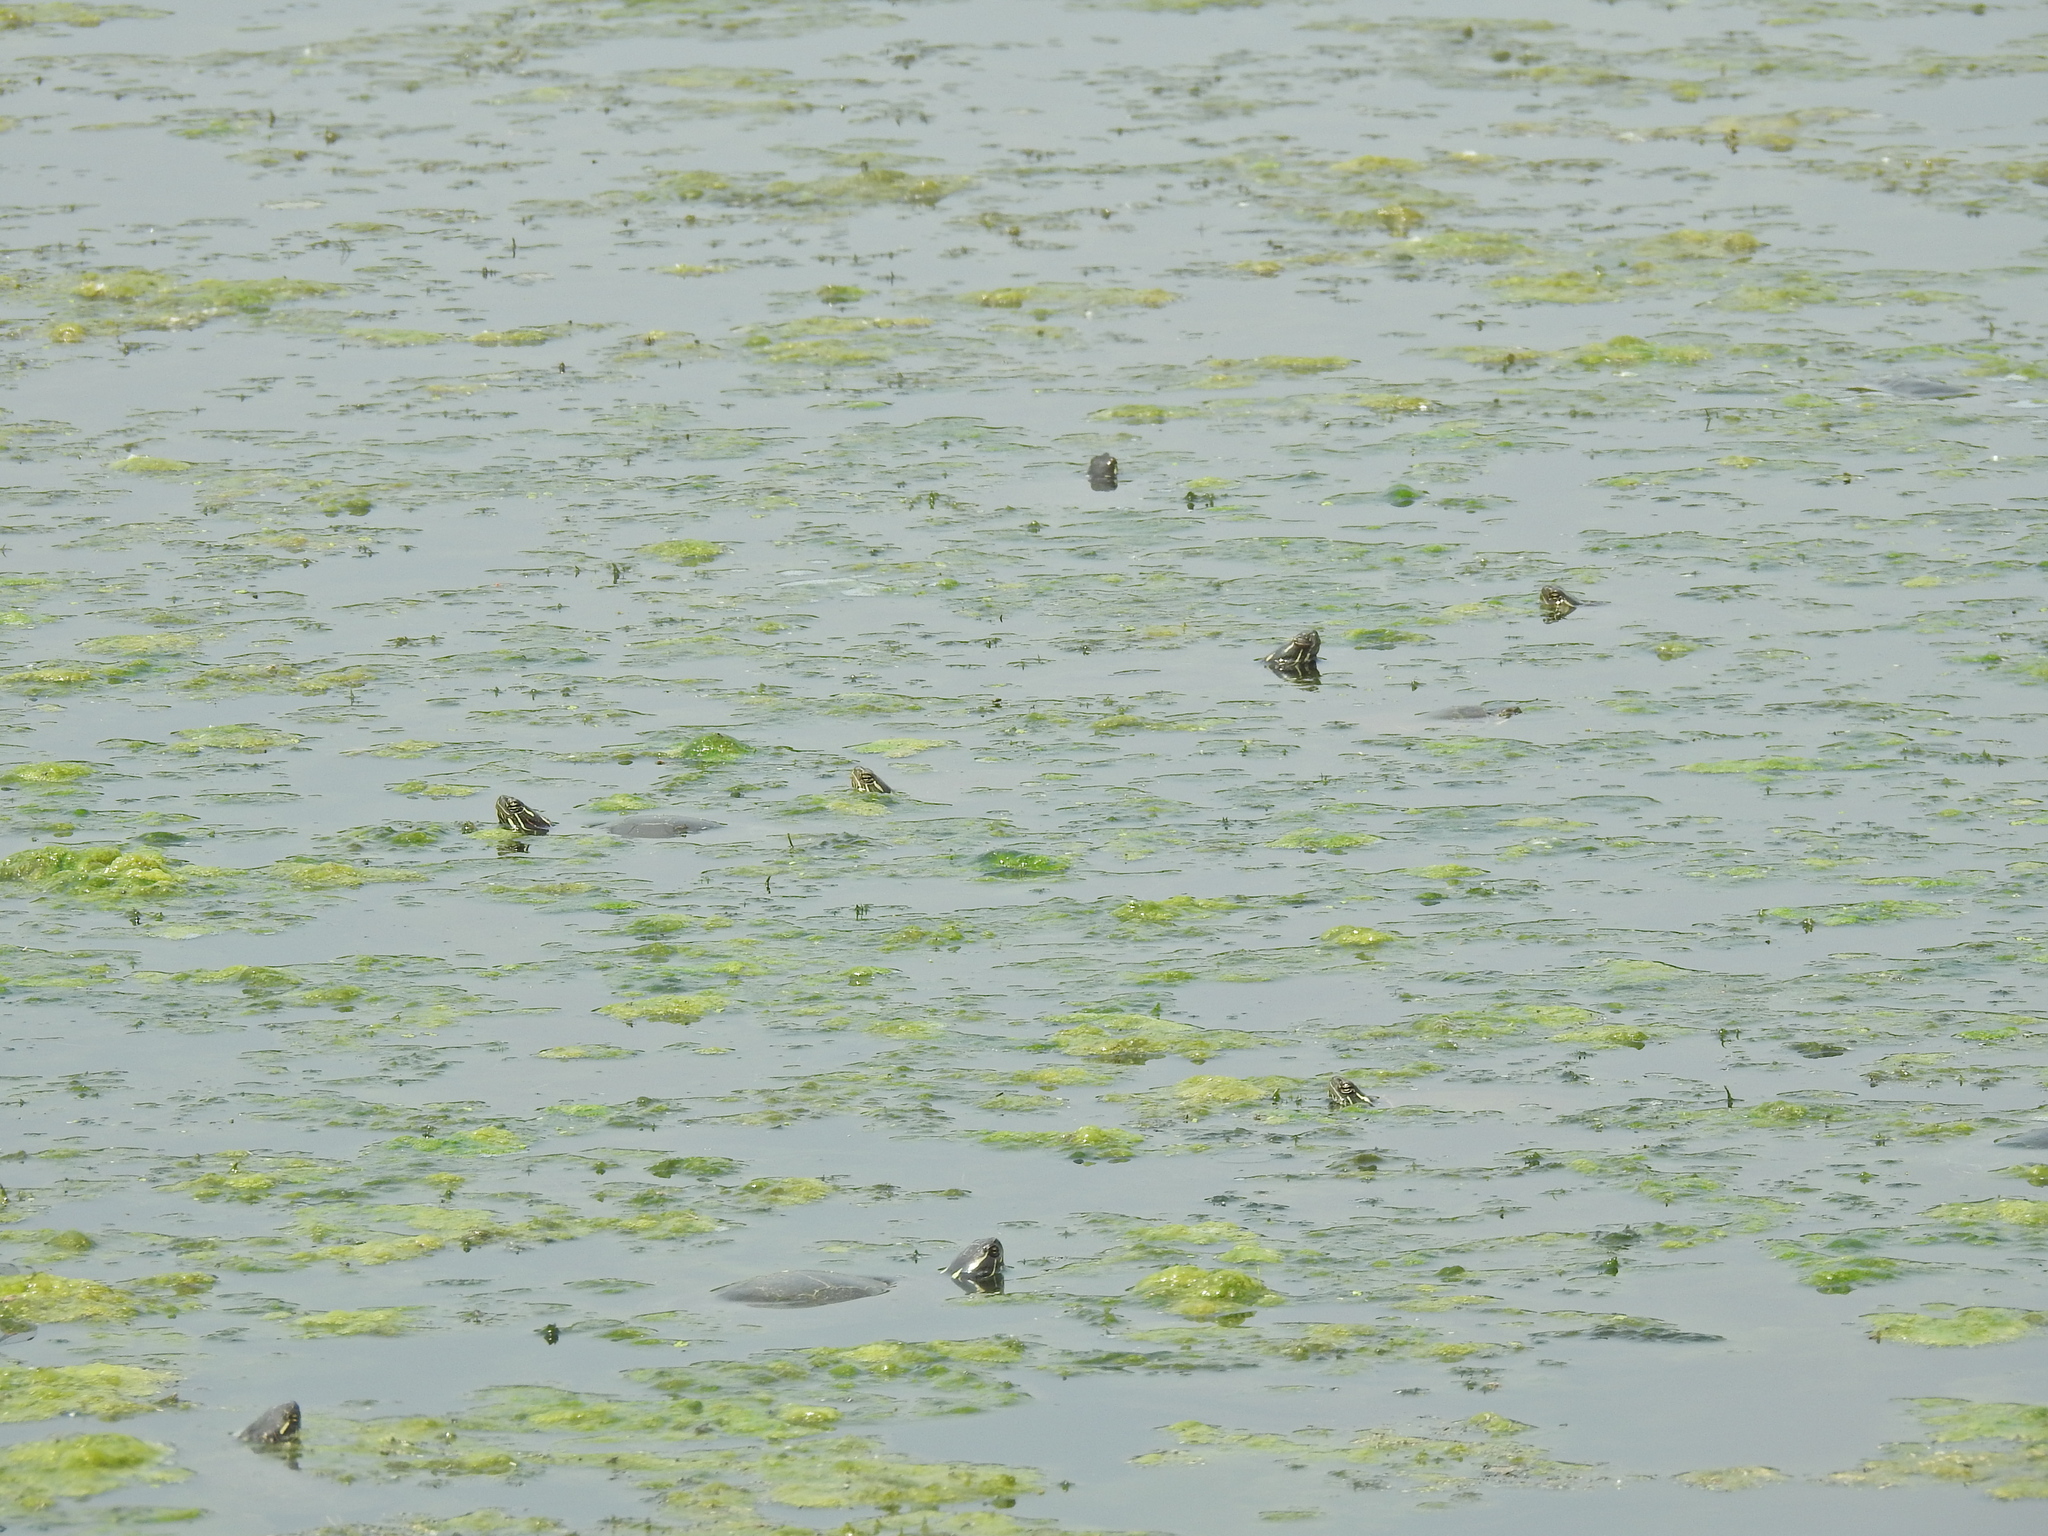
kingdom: Animalia
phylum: Chordata
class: Testudines
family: Emydidae
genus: Chrysemys
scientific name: Chrysemys picta
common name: Painted turtle
